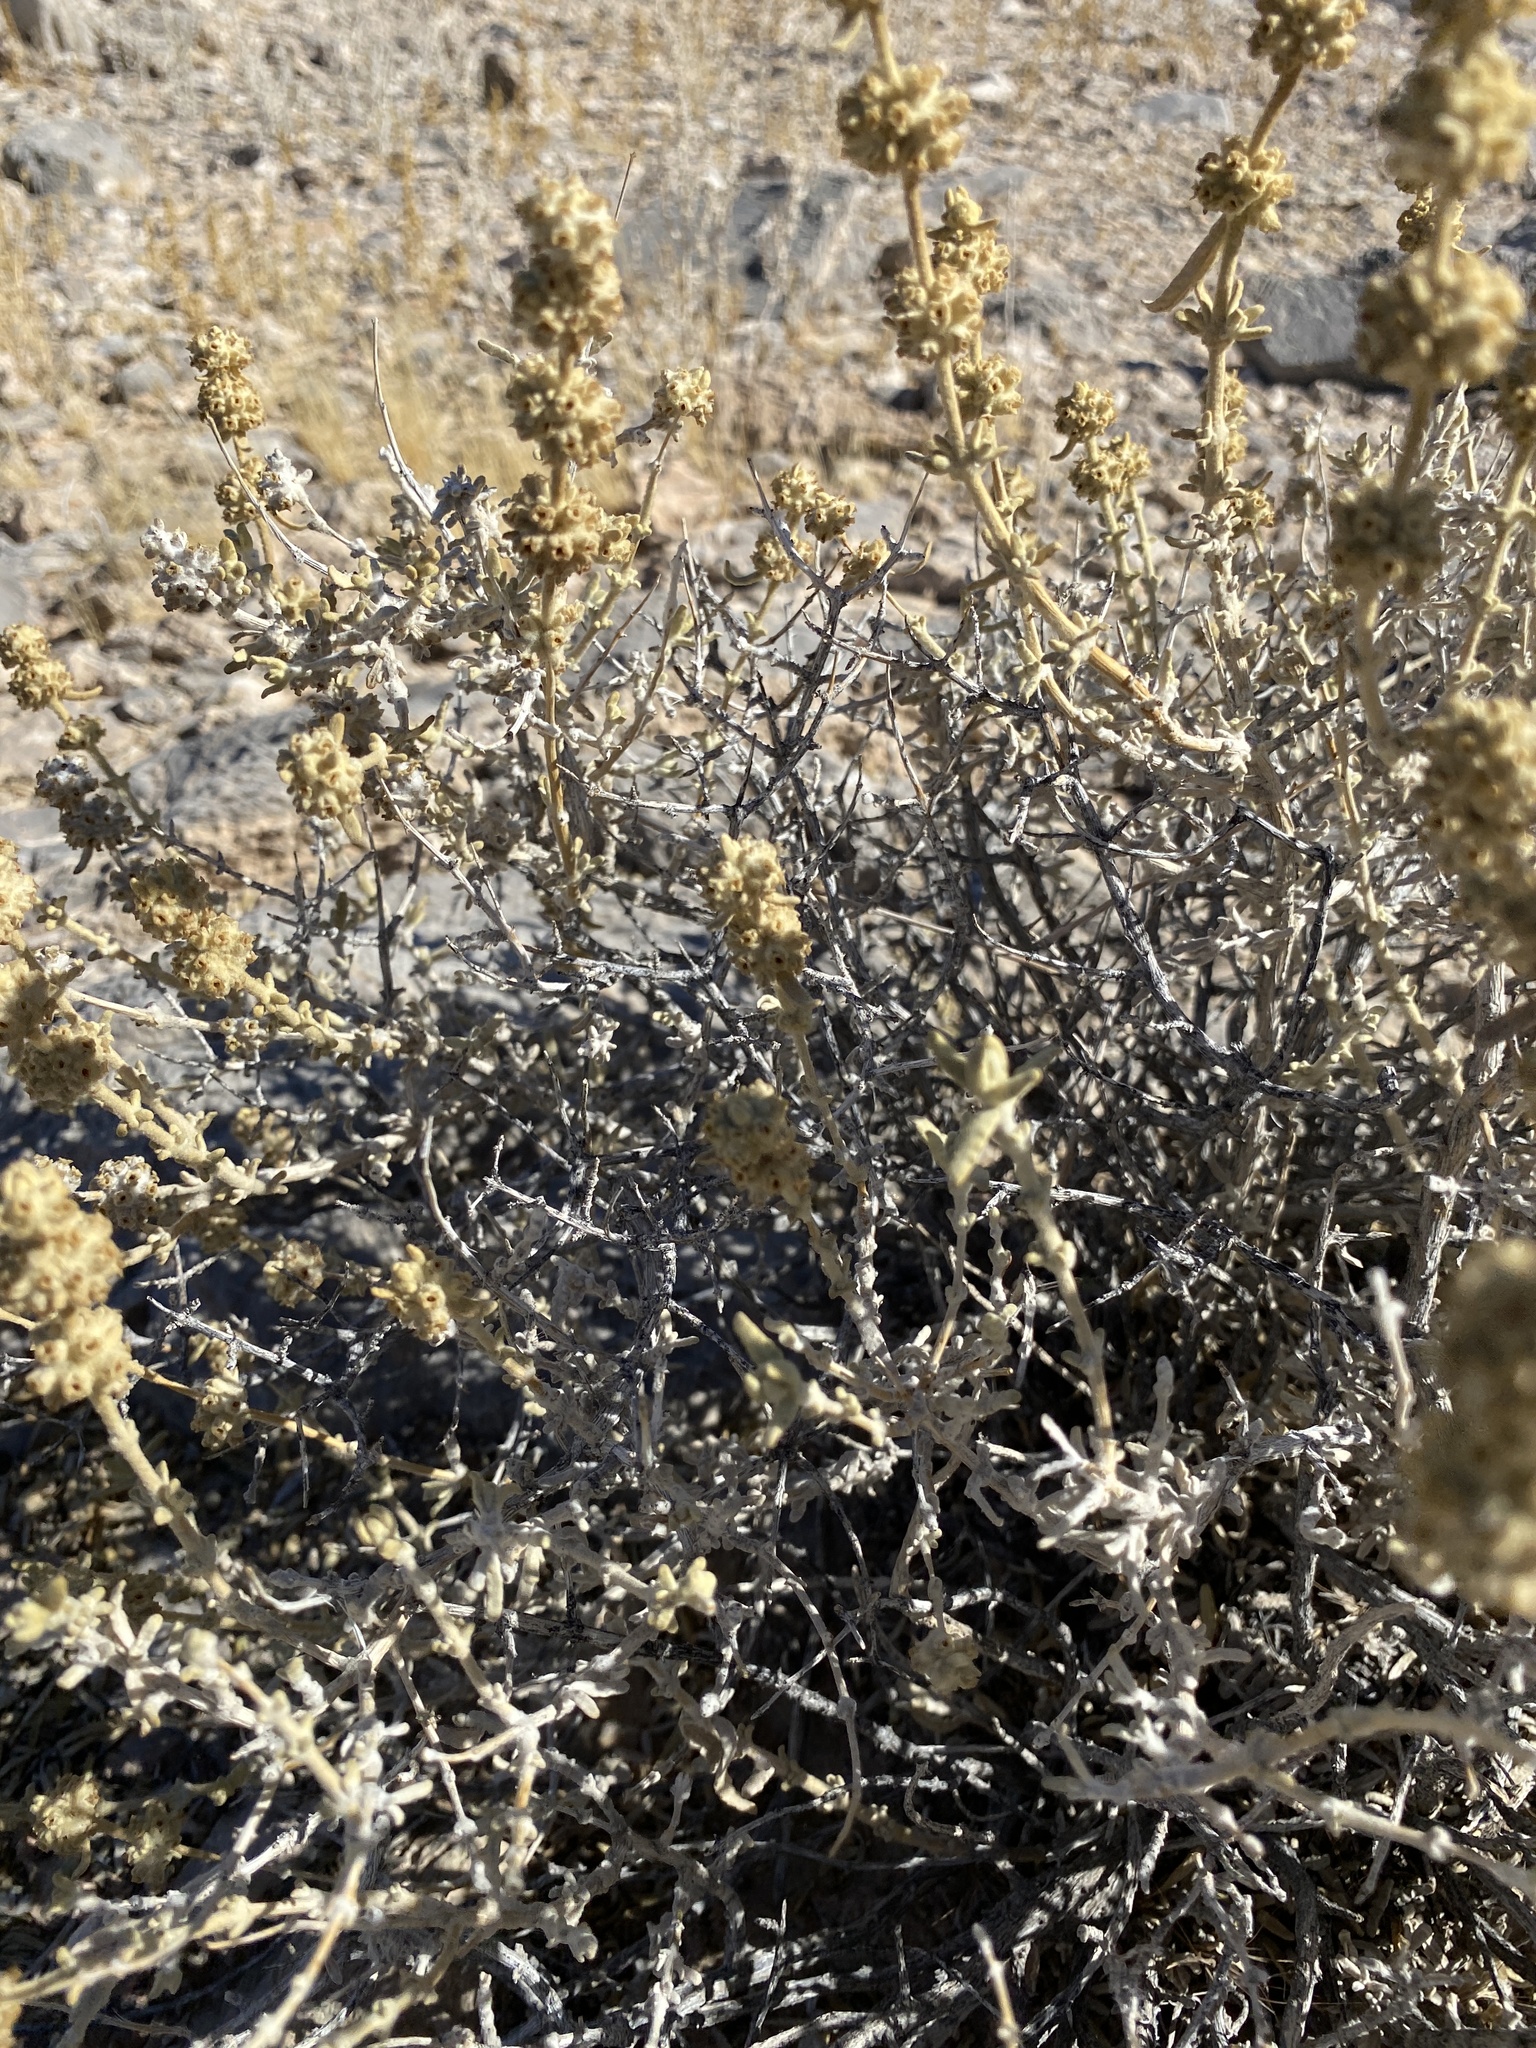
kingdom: Plantae
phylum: Tracheophyta
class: Magnoliopsida
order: Lamiales
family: Scrophulariaceae
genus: Buddleja
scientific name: Buddleja utahensis
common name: Utah butterfly-bush
